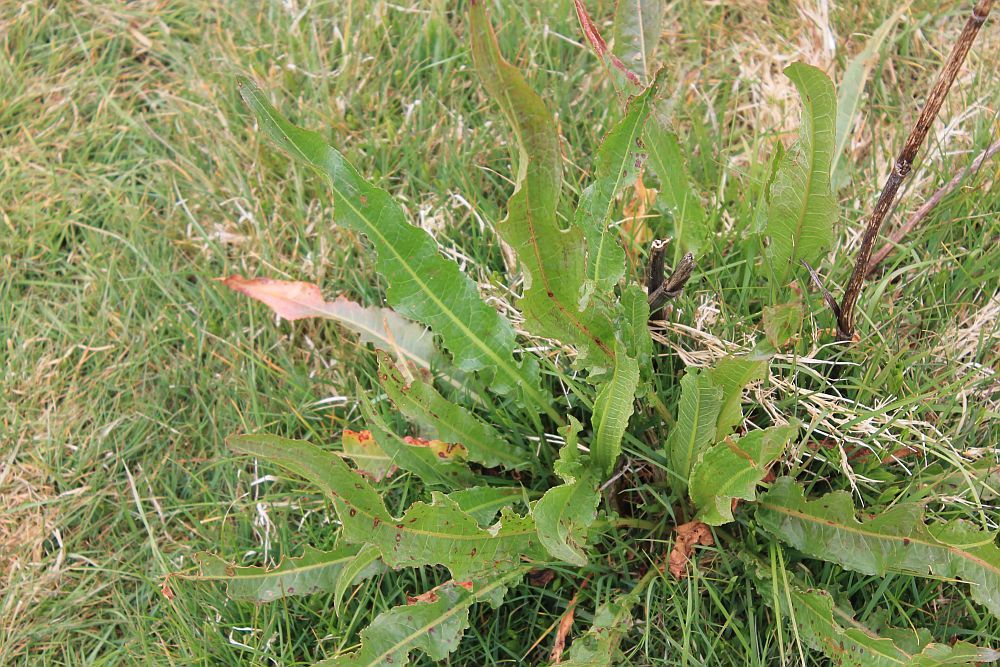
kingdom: Plantae
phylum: Tracheophyta
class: Magnoliopsida
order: Caryophyllales
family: Polygonaceae
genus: Rumex
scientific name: Rumex crispus
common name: Curled dock
